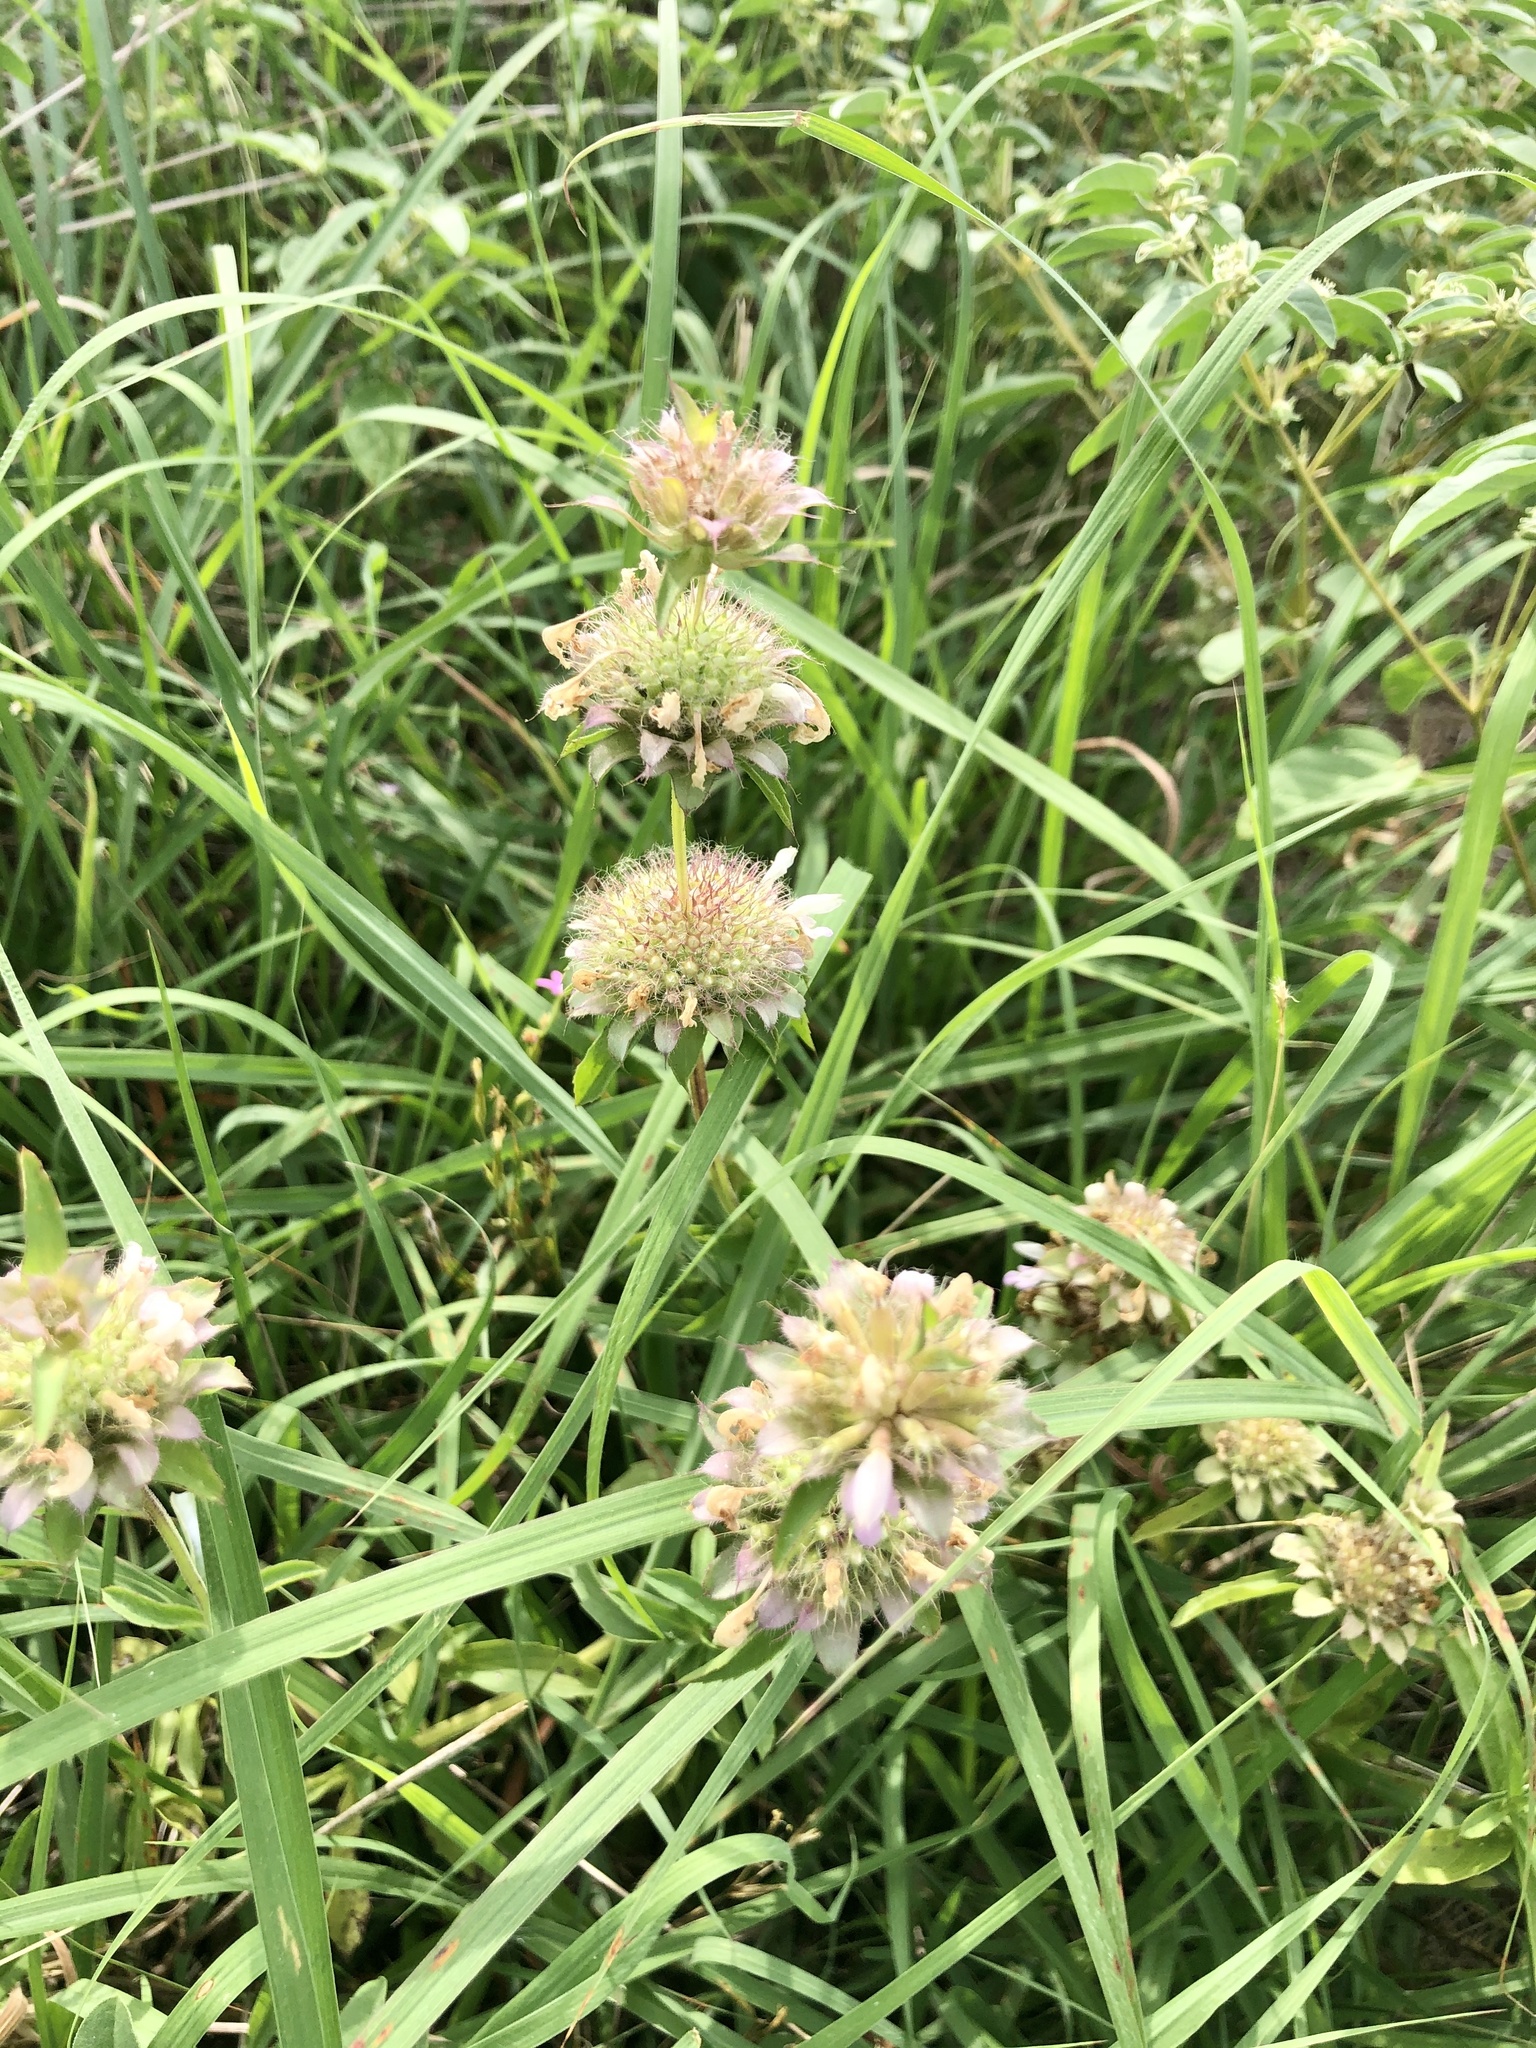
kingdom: Plantae
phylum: Tracheophyta
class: Magnoliopsida
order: Lamiales
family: Lamiaceae
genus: Monarda
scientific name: Monarda citriodora
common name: Lemon beebalm
